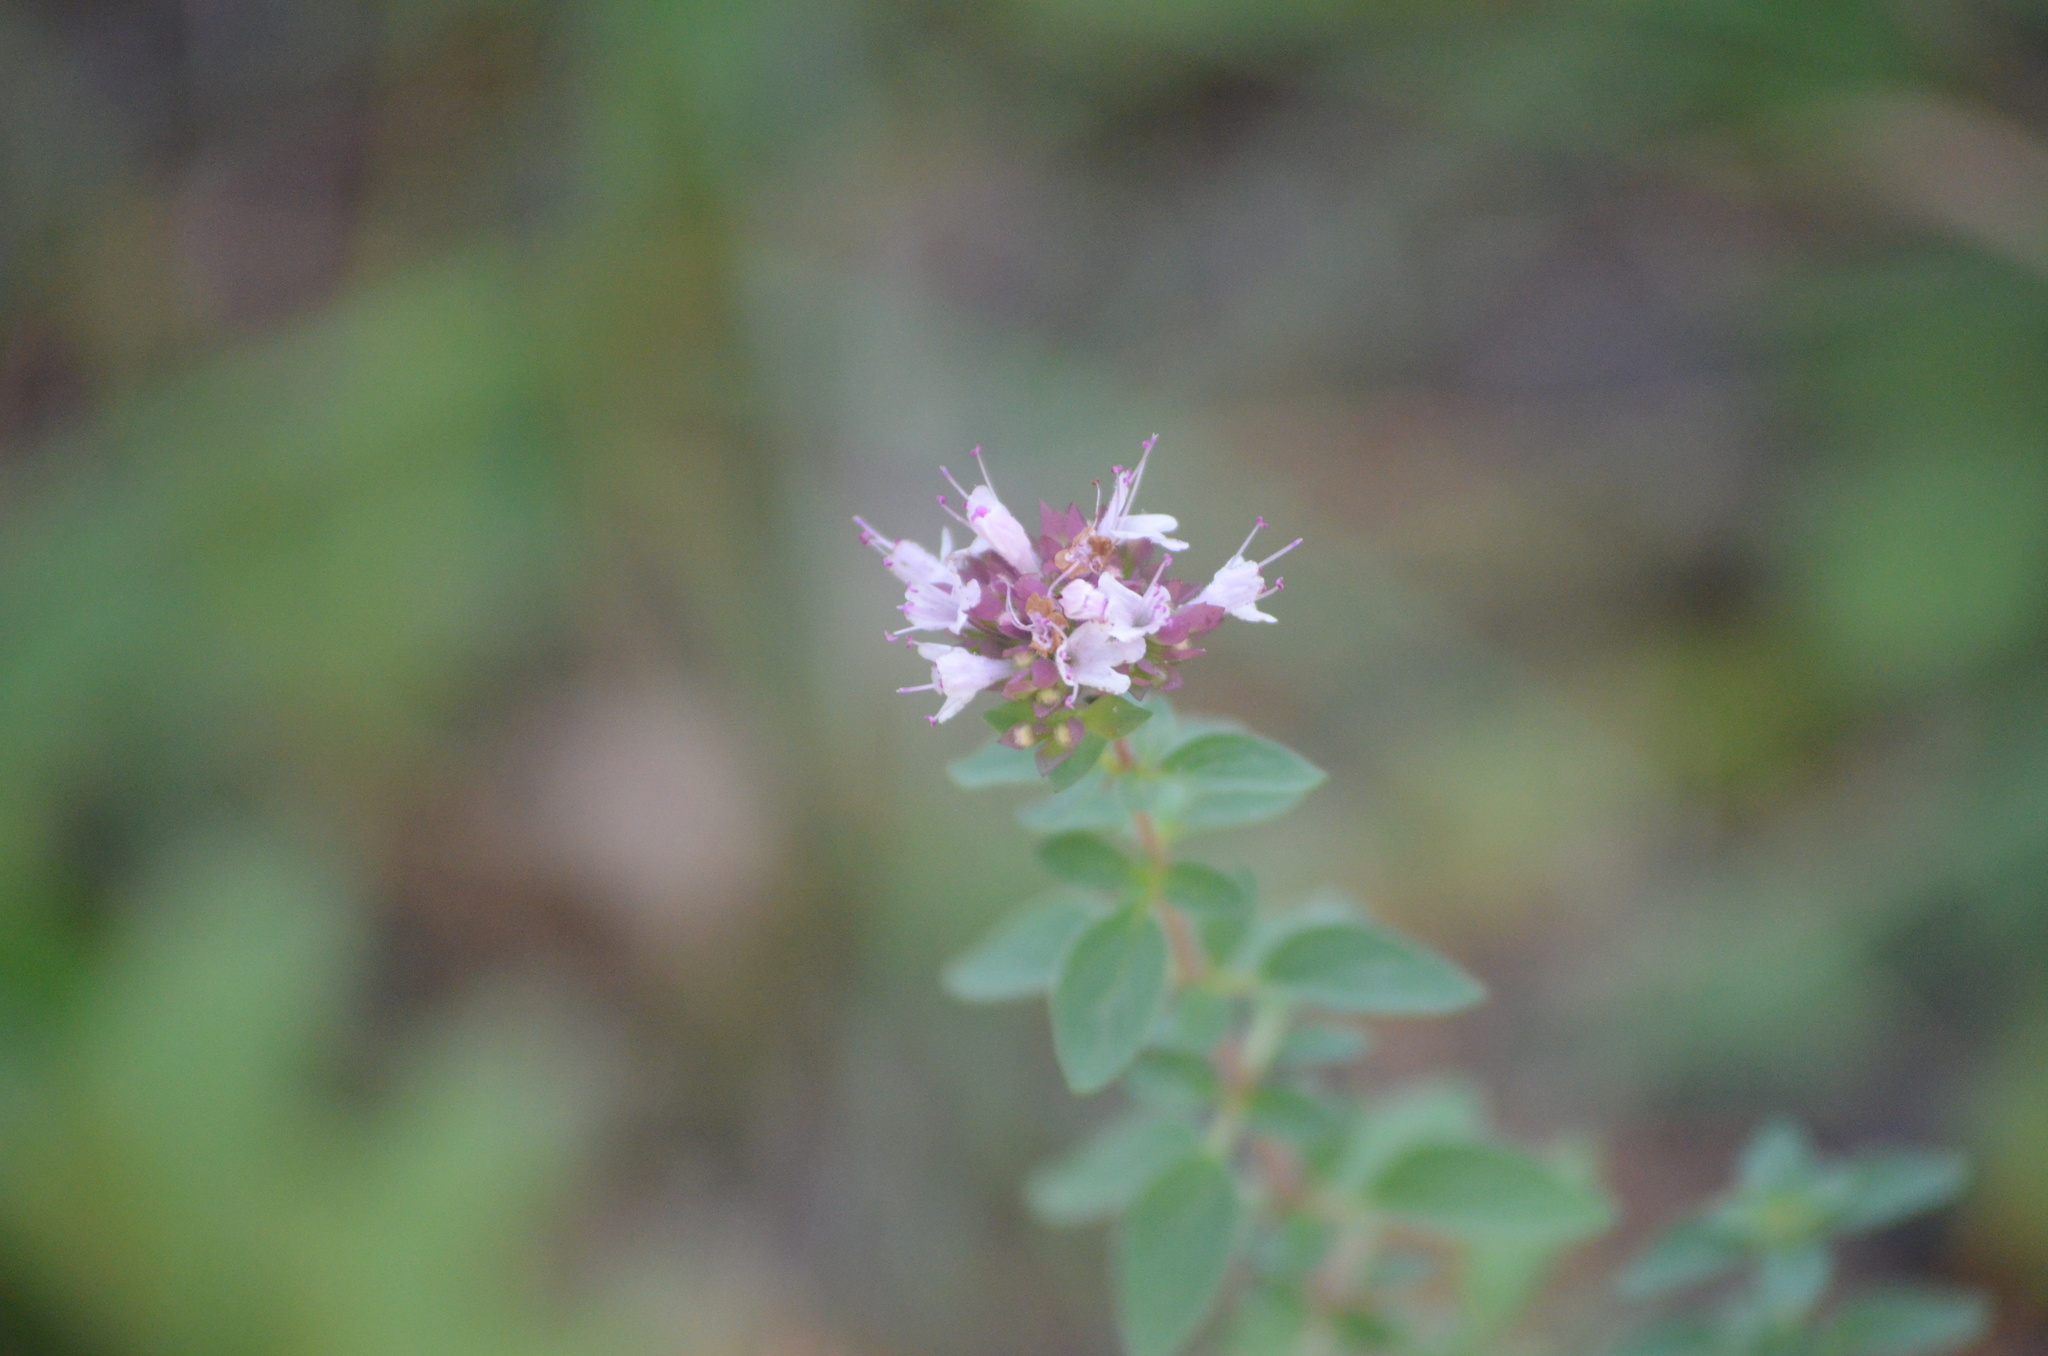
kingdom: Plantae
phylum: Tracheophyta
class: Magnoliopsida
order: Lamiales
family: Lamiaceae
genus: Origanum
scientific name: Origanum vulgare
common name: Wild marjoram
